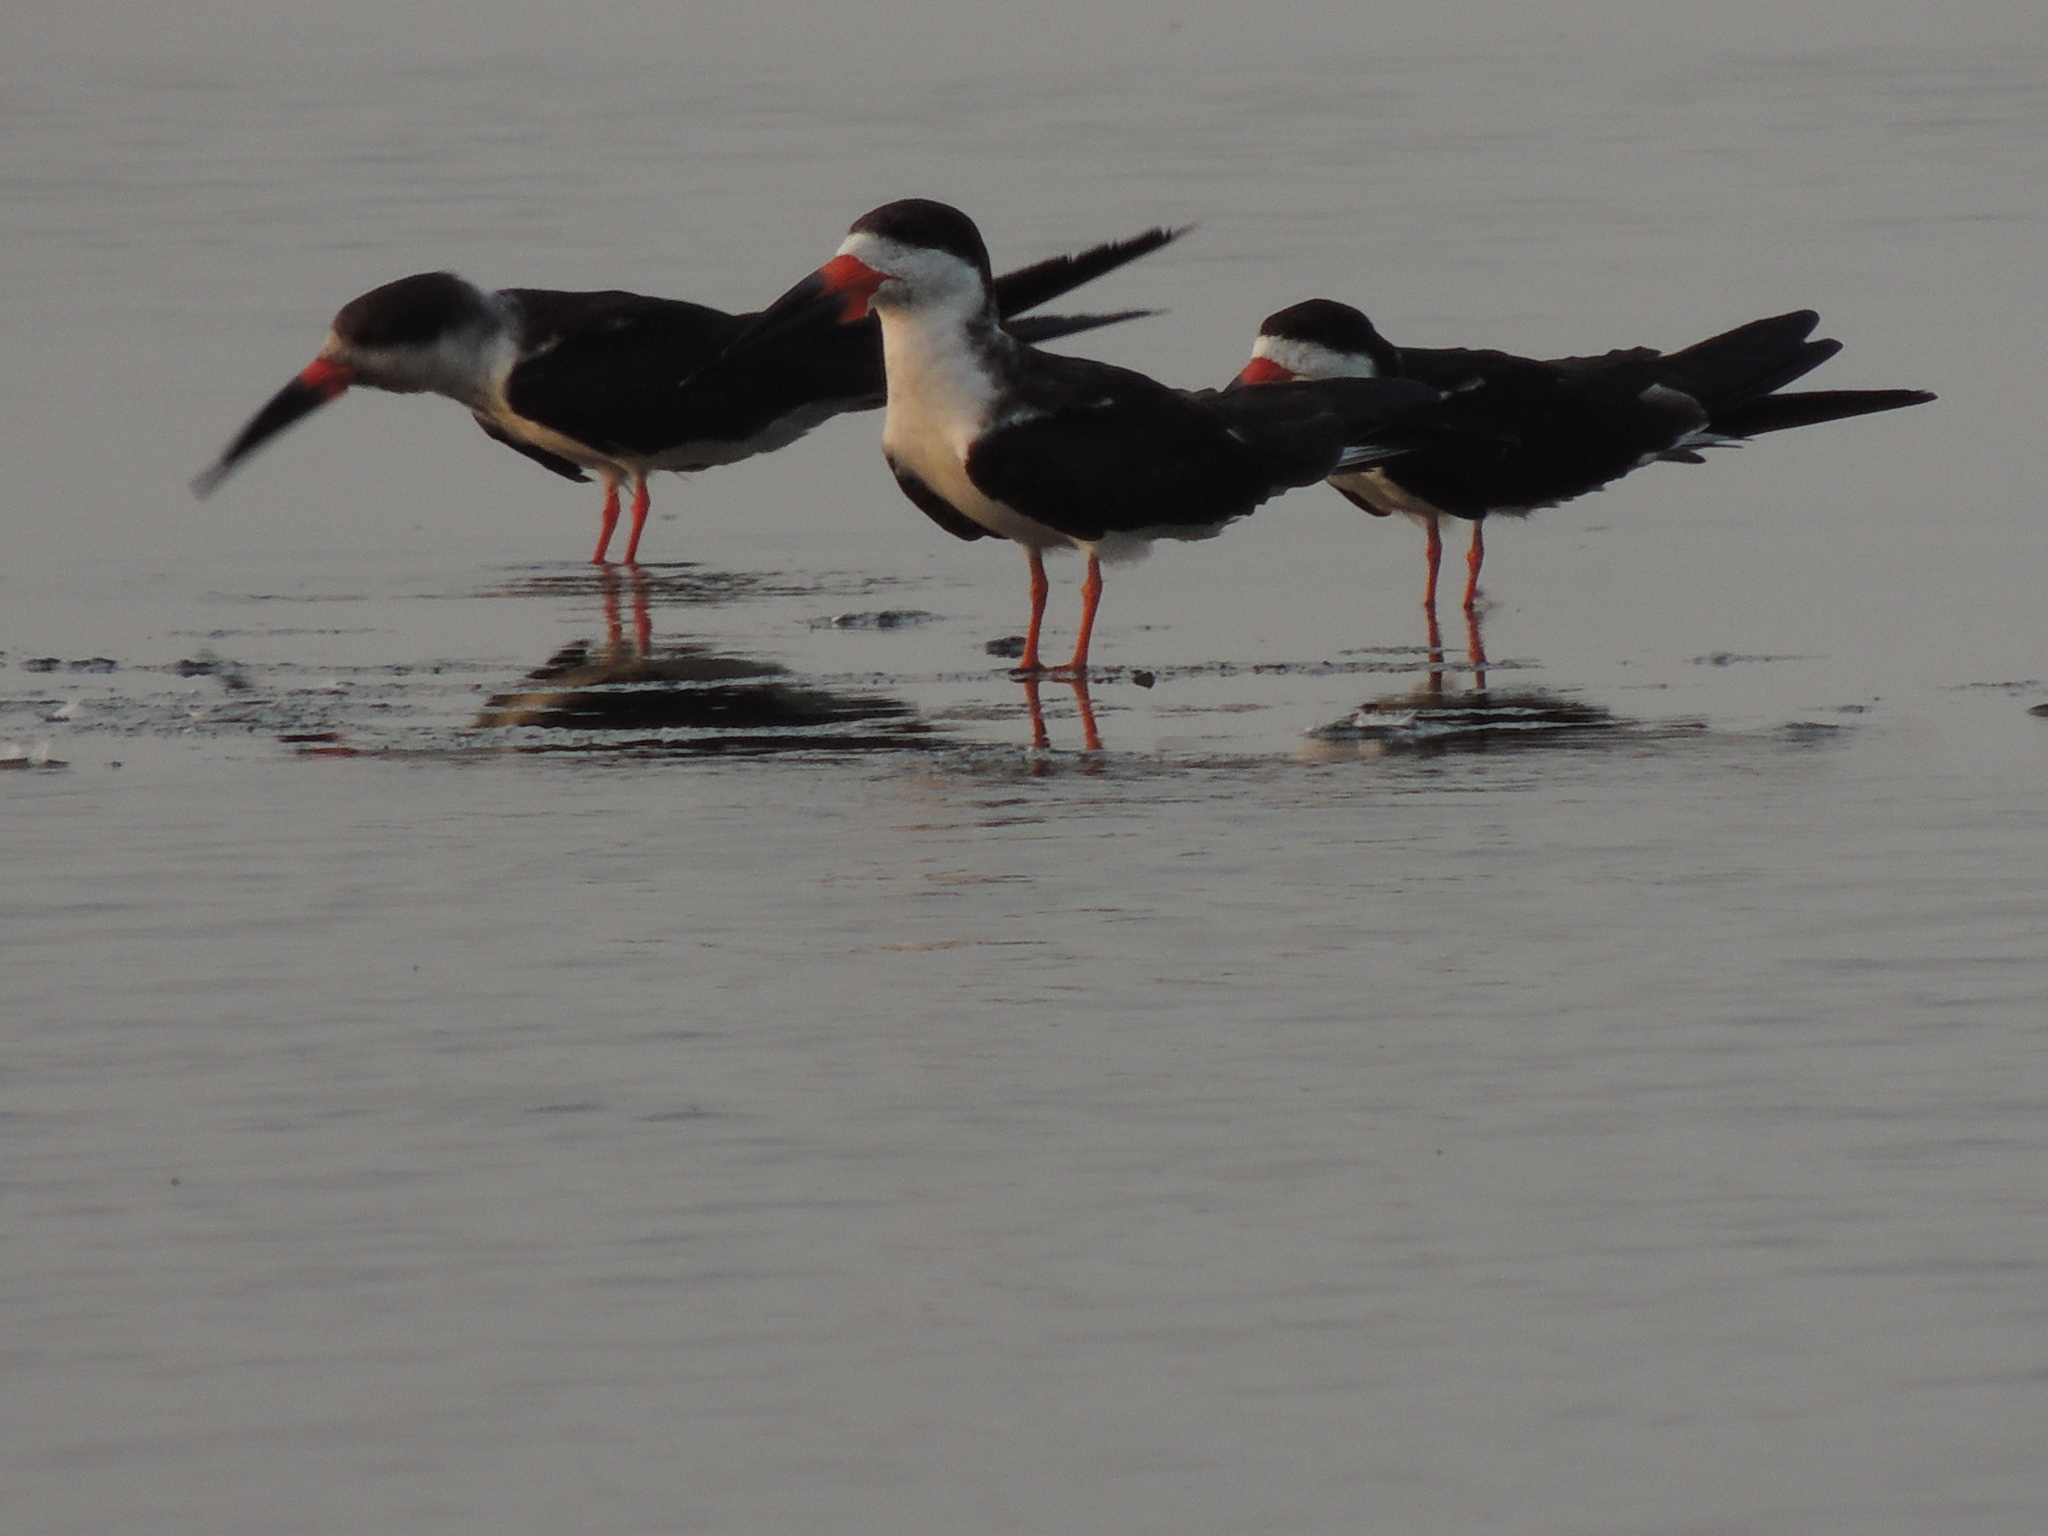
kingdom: Animalia
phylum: Chordata
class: Aves
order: Charadriiformes
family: Laridae
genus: Rynchops
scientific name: Rynchops niger
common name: Black skimmer
